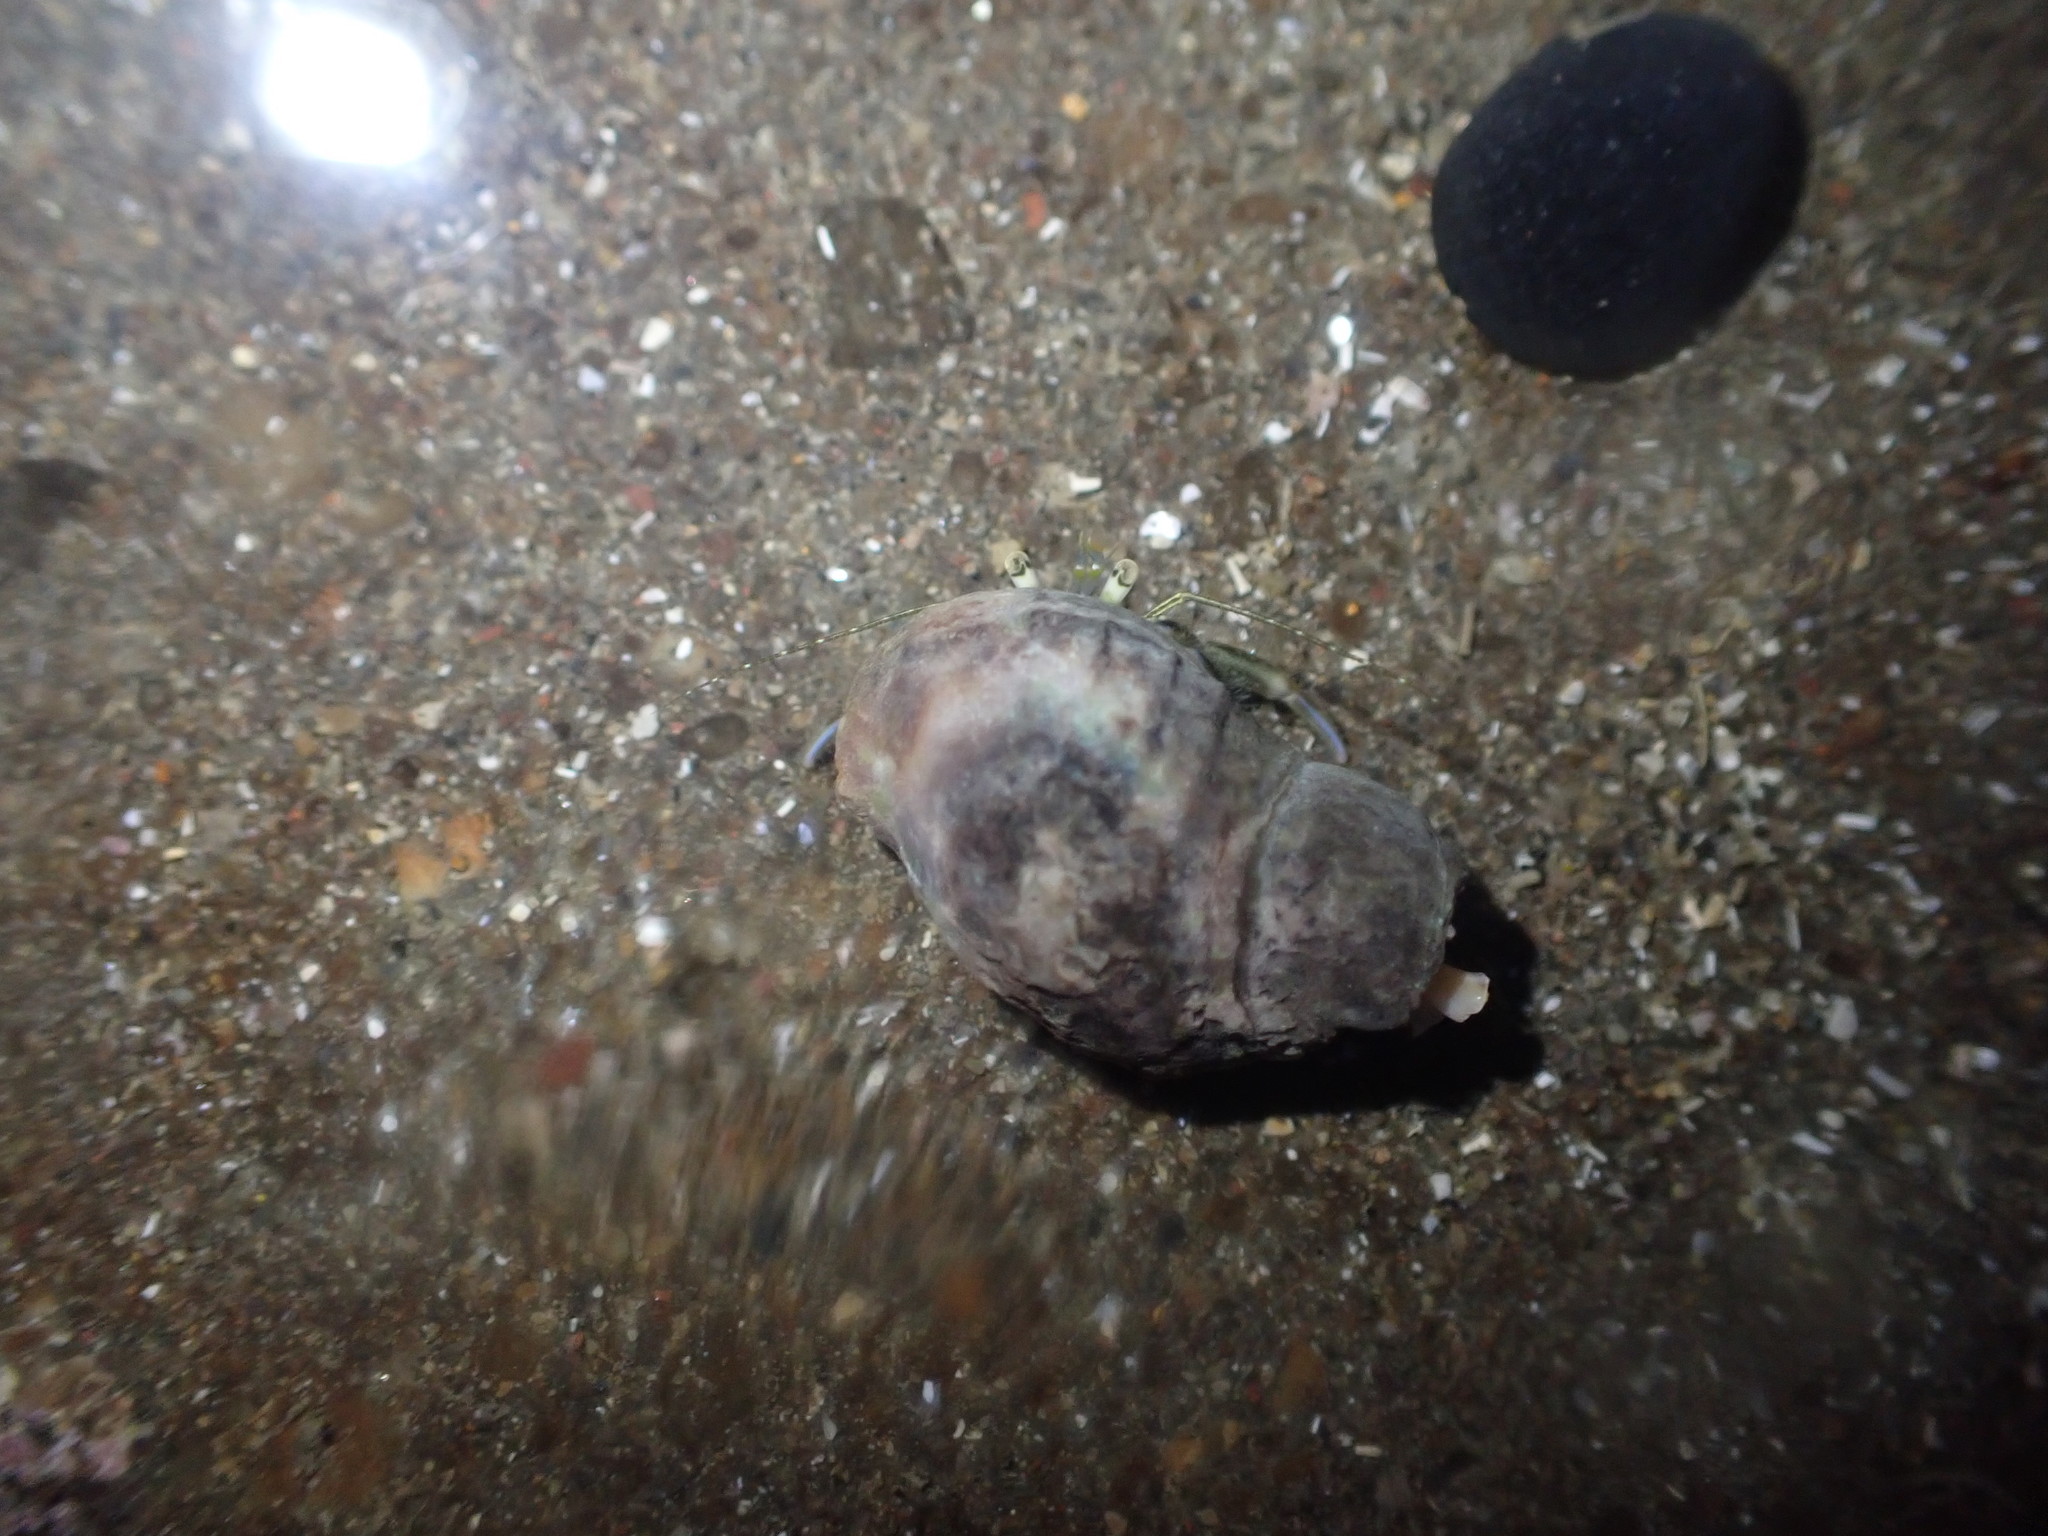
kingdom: Animalia
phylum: Mollusca
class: Gastropoda
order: Neogastropoda
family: Cominellidae
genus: Cominella
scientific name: Cominella glandiformis
